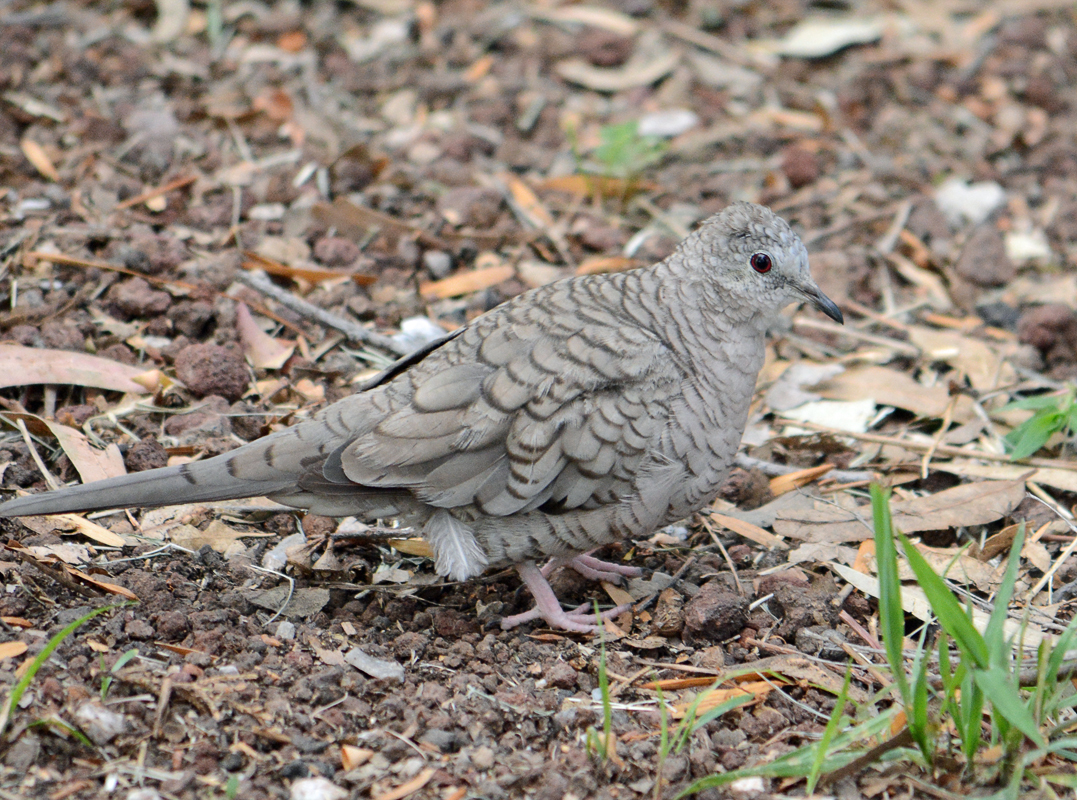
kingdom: Animalia
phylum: Chordata
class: Aves
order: Columbiformes
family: Columbidae
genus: Columbina
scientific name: Columbina inca
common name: Inca dove
